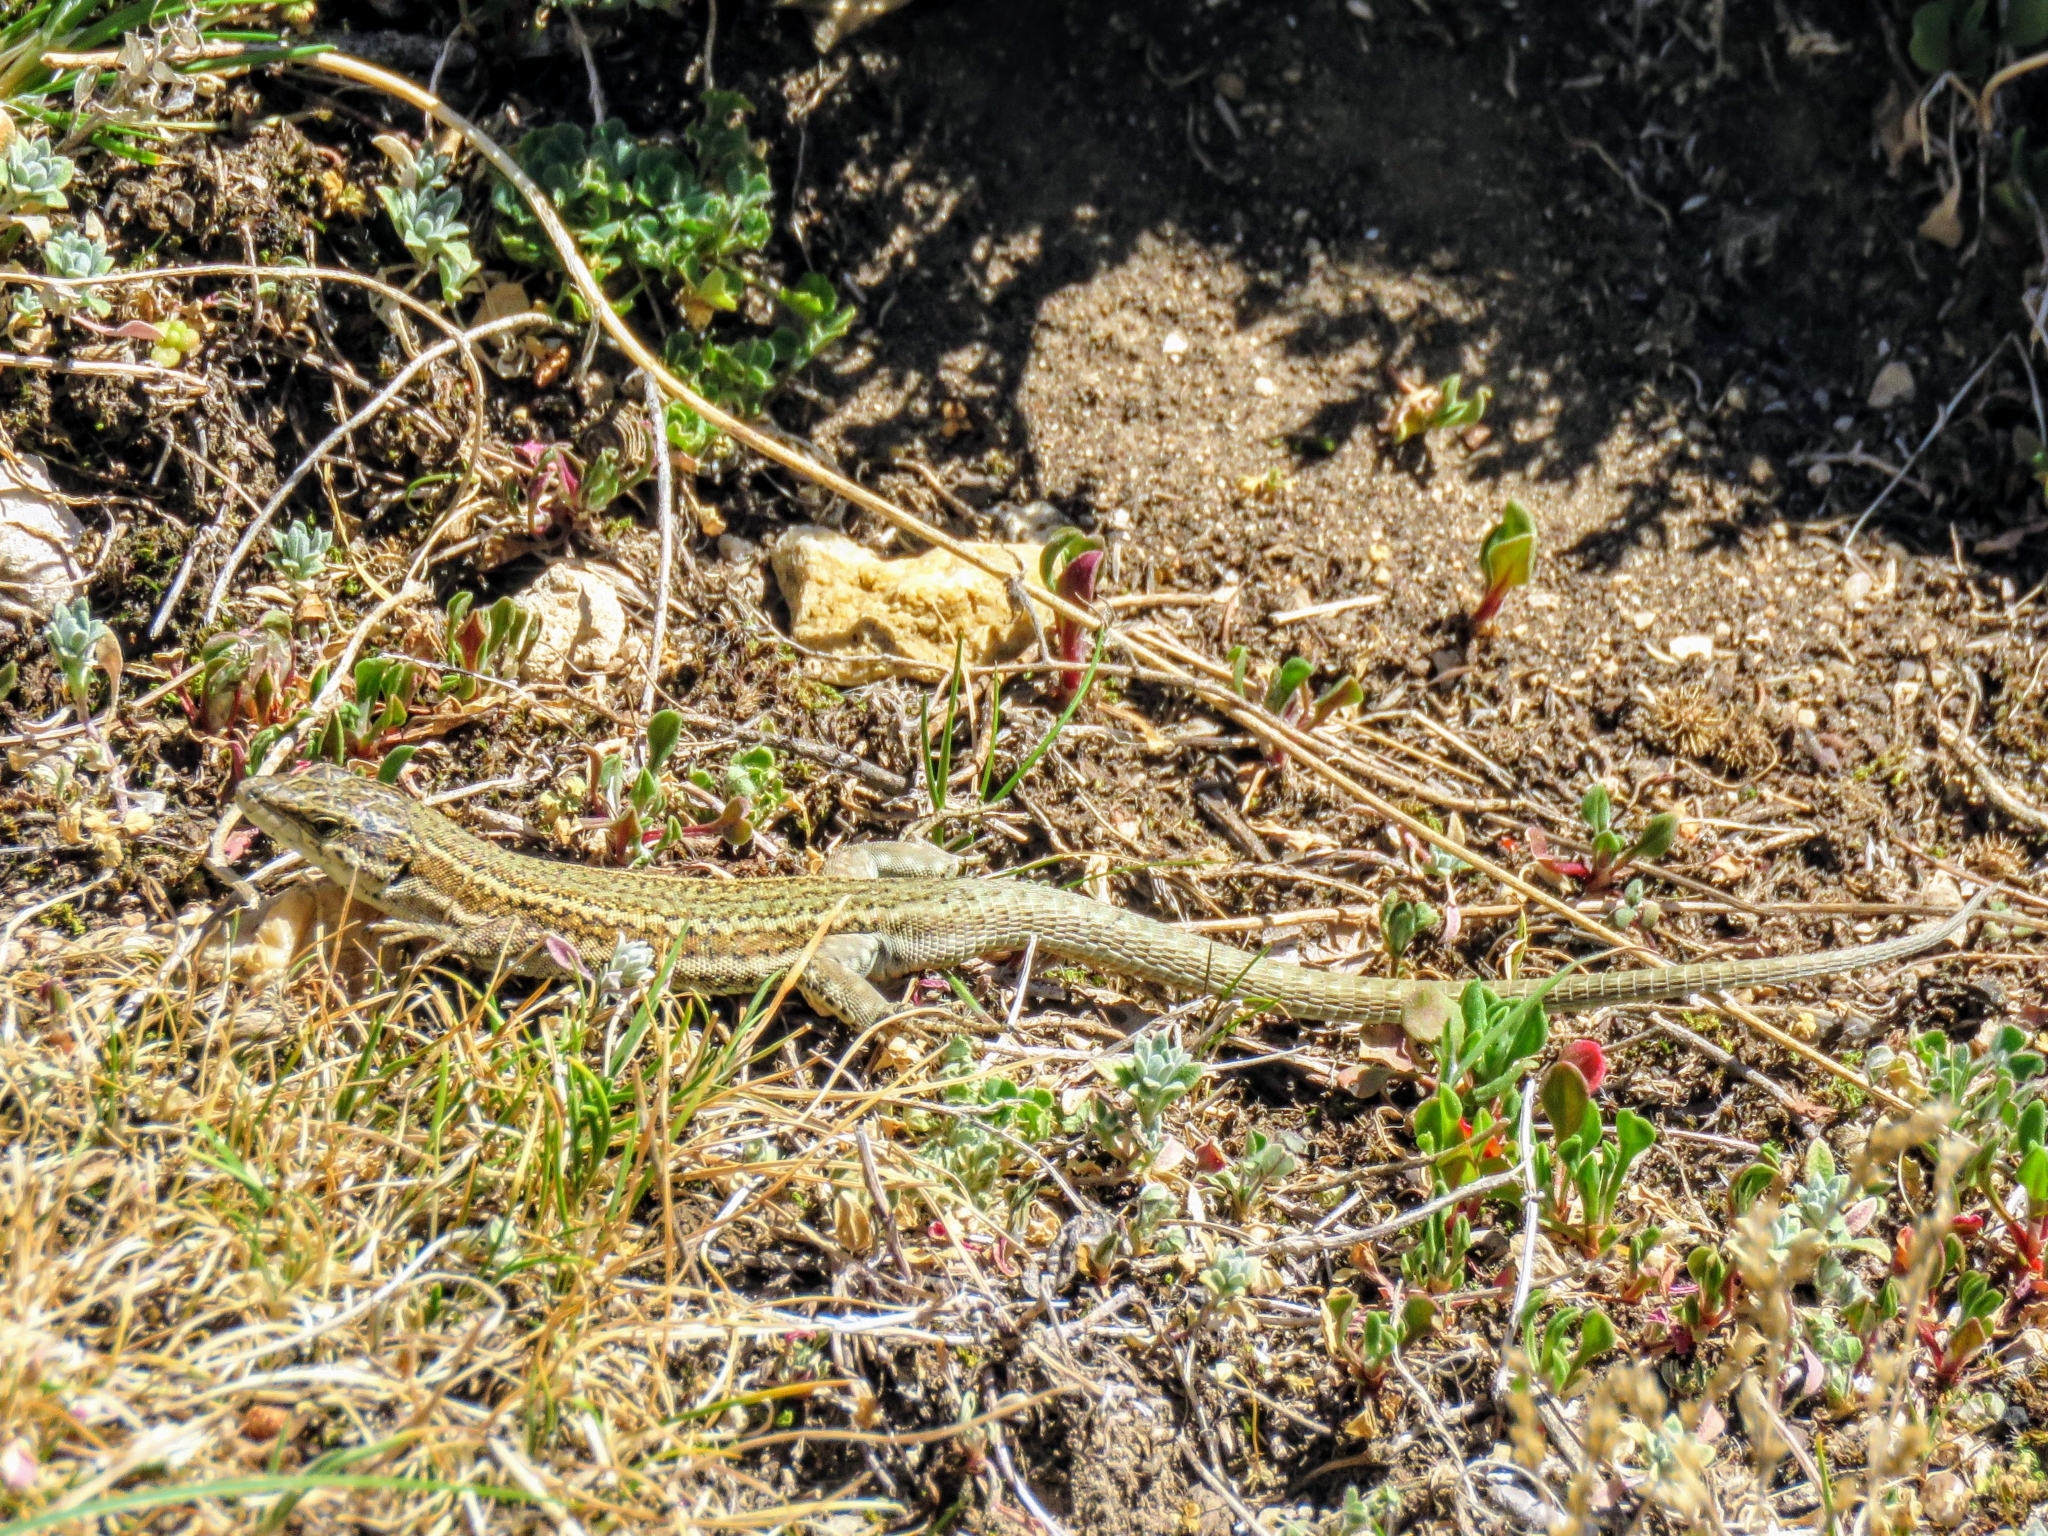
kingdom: Animalia
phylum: Chordata
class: Squamata
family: Lacertidae
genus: Podarcis
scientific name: Podarcis liolepis
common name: Catalonian wall lizard
